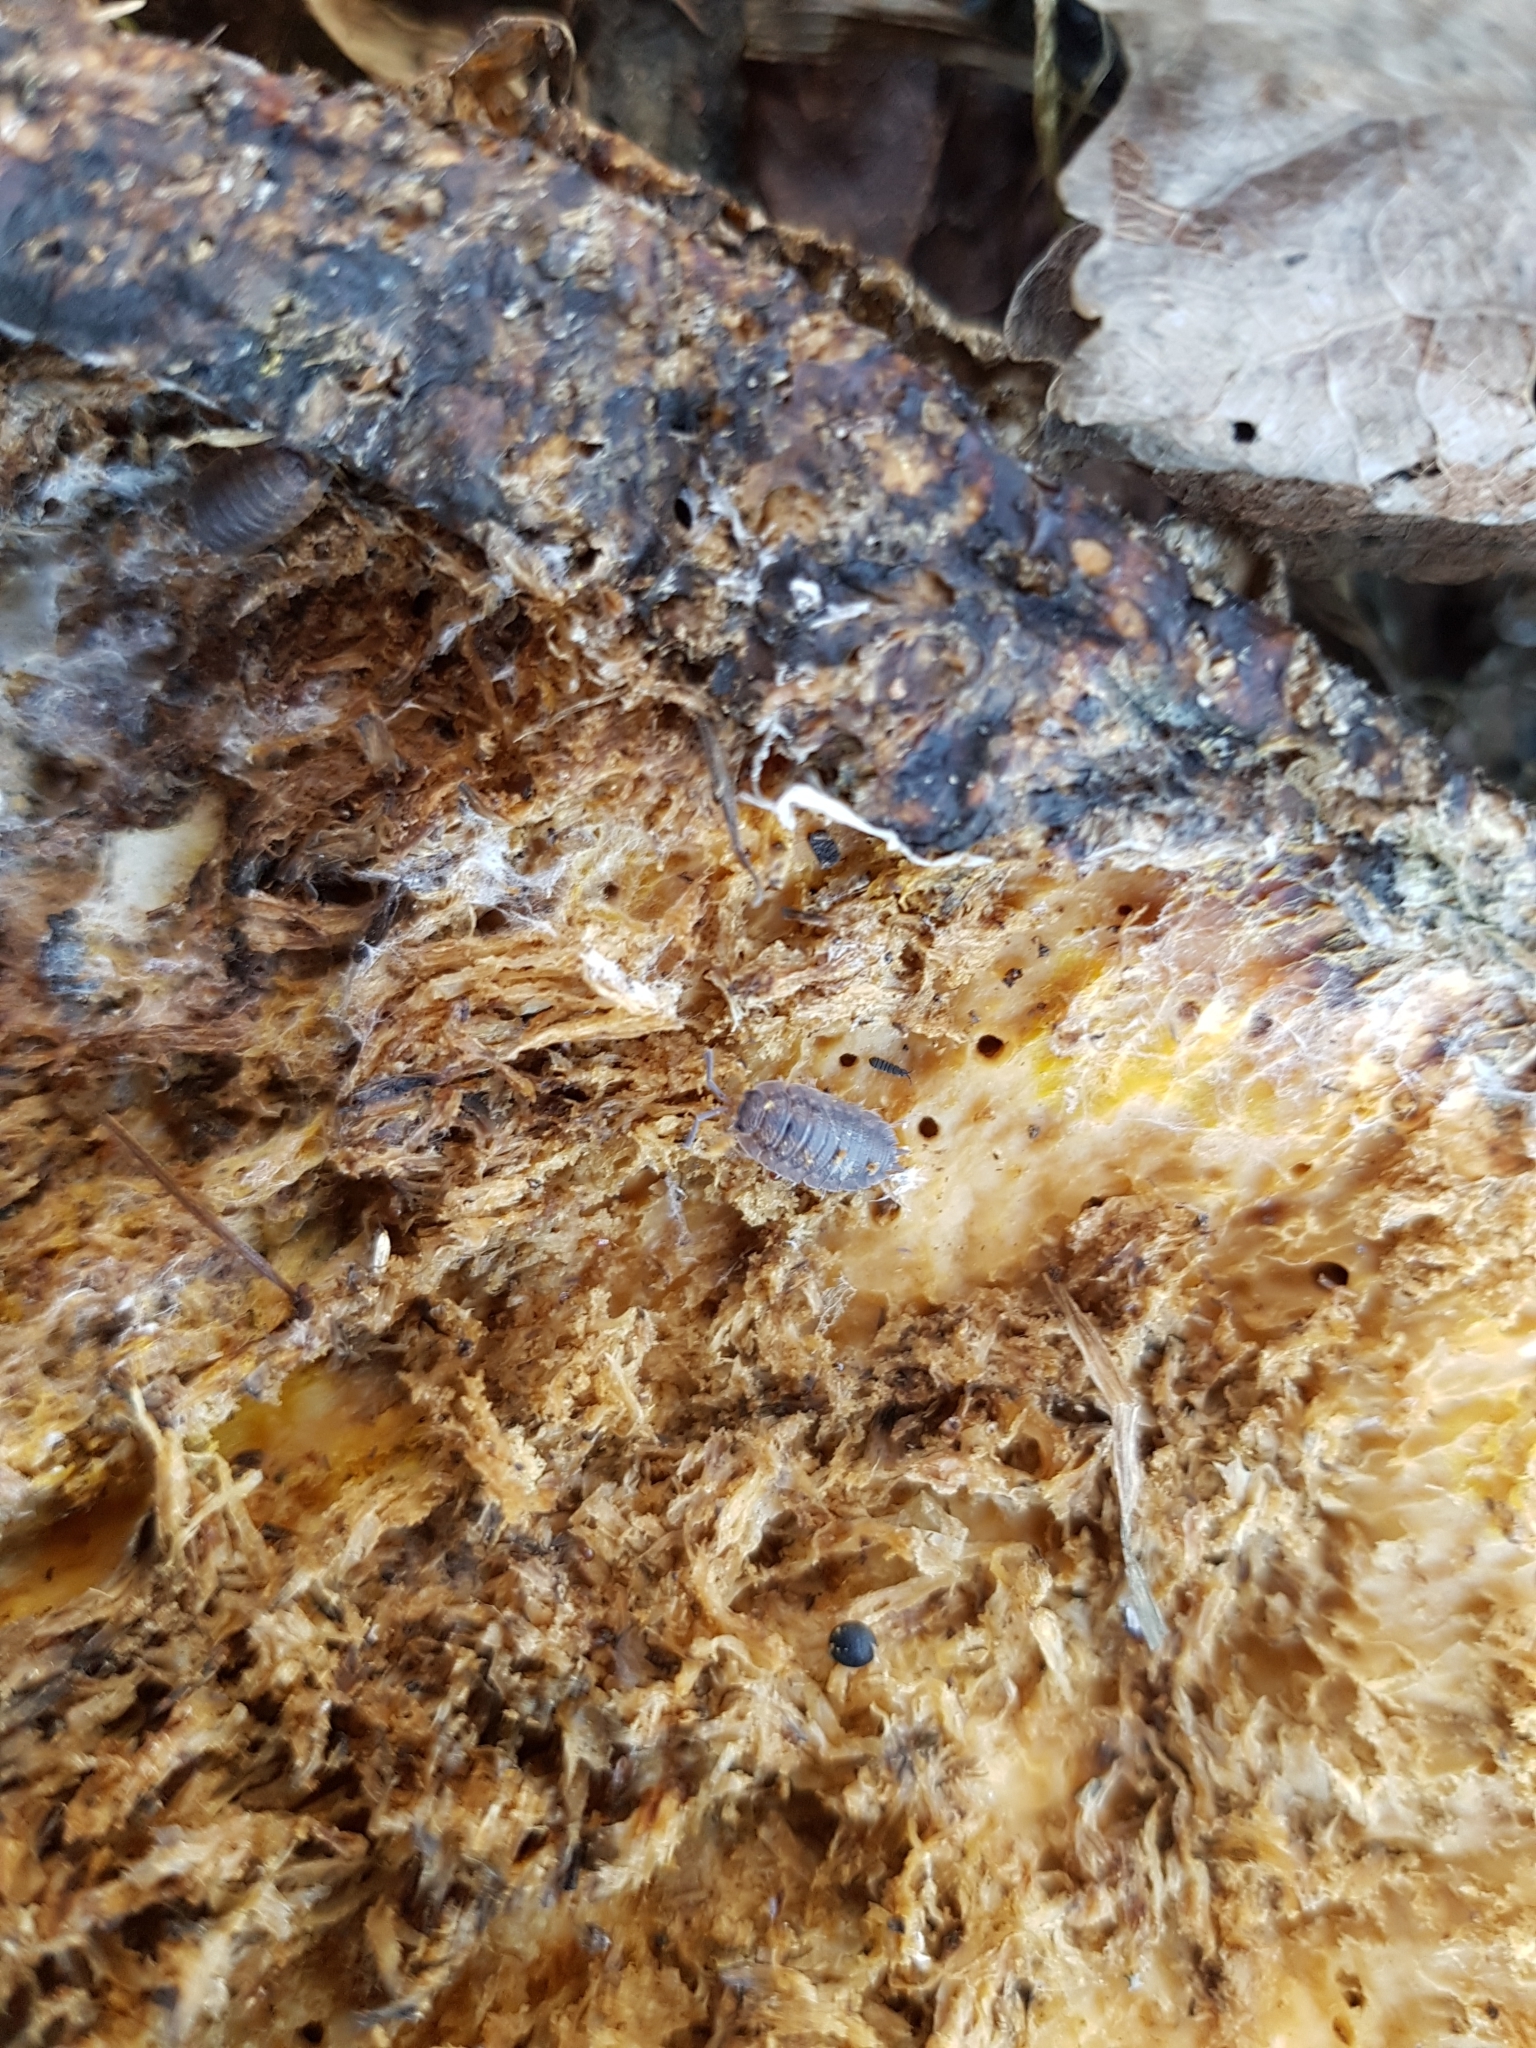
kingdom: Animalia
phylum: Arthropoda
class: Malacostraca
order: Isopoda
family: Porcellionidae
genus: Porcellio
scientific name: Porcellio scaber
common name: Common rough woodlouse
